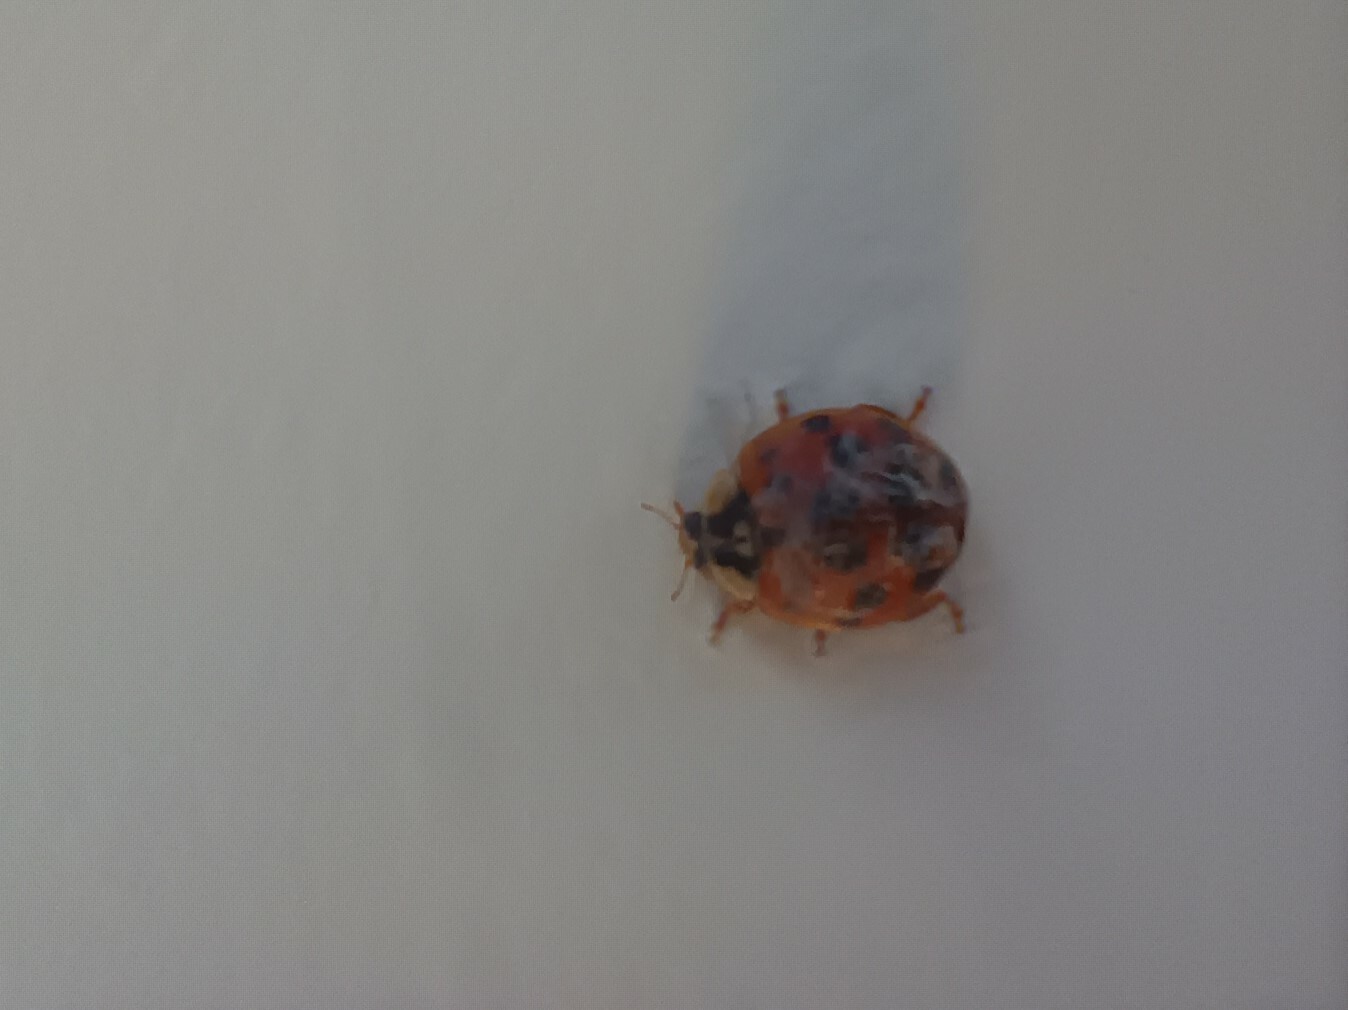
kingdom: Animalia
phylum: Arthropoda
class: Insecta
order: Coleoptera
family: Coccinellidae
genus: Harmonia
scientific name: Harmonia axyridis
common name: Harlequin ladybird
